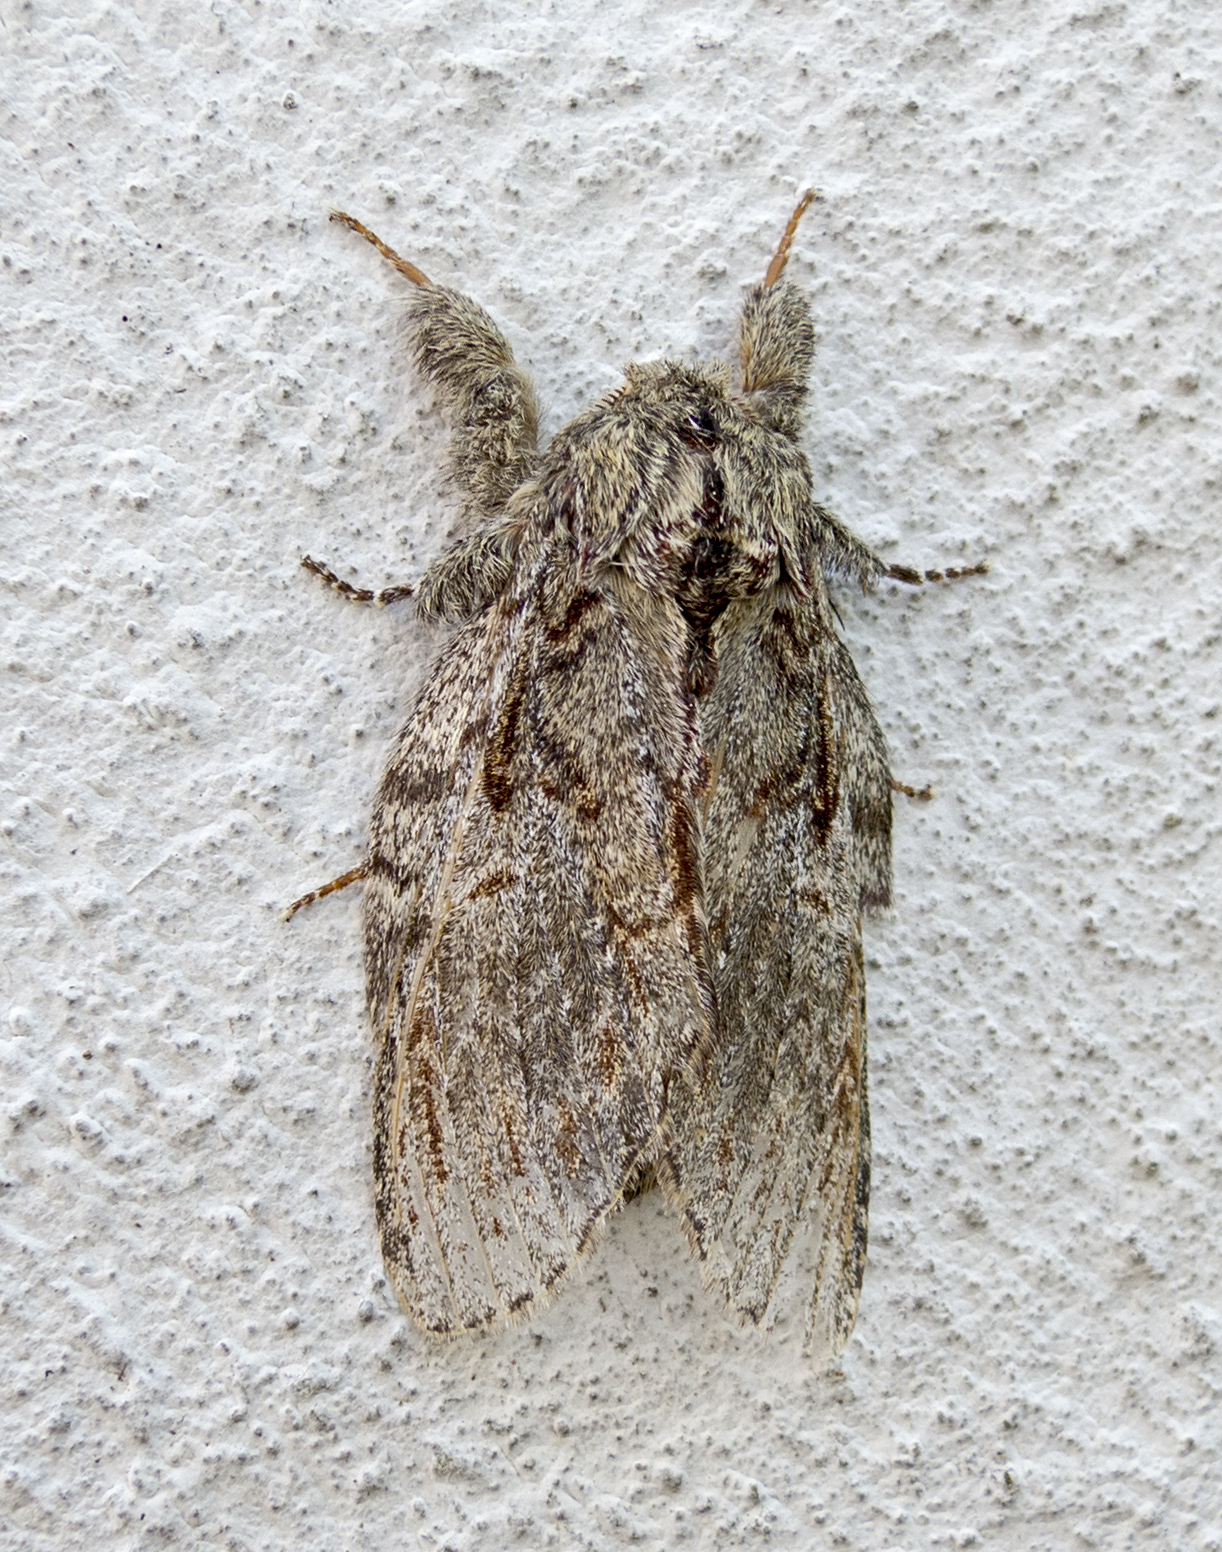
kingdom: Animalia
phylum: Arthropoda
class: Insecta
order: Lepidoptera
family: Notodontidae
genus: Peridea
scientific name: Peridea anceps
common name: Great prominent
